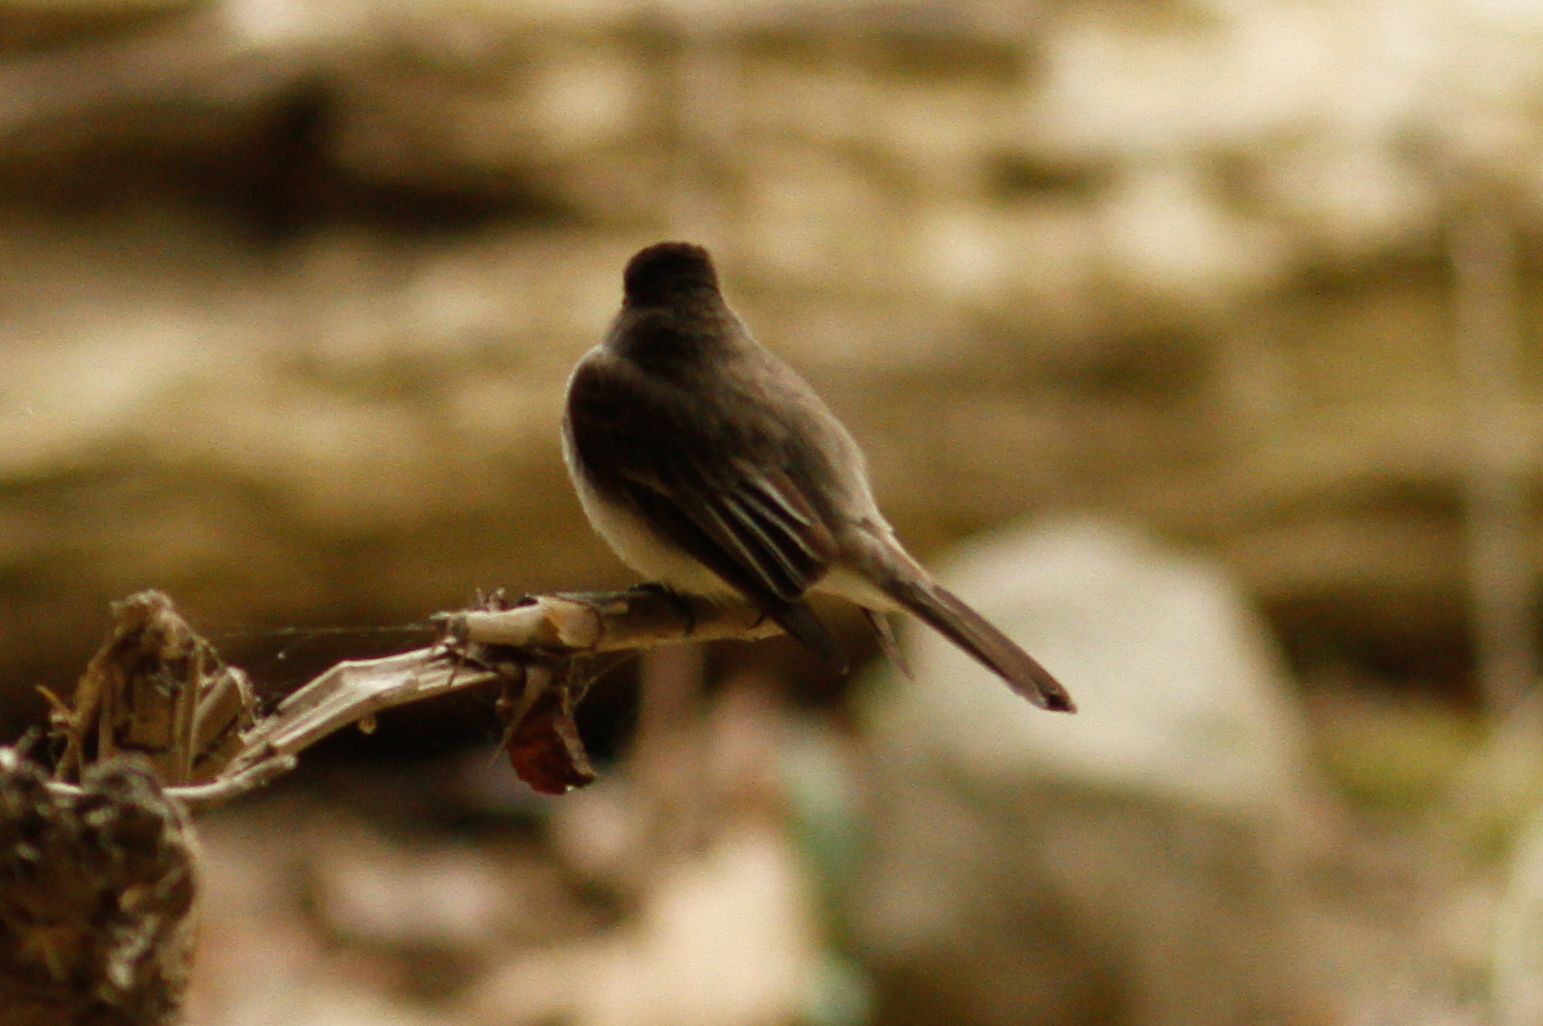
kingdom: Animalia
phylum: Chordata
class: Aves
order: Passeriformes
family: Tyrannidae
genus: Sayornis
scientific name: Sayornis phoebe
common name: Eastern phoebe
